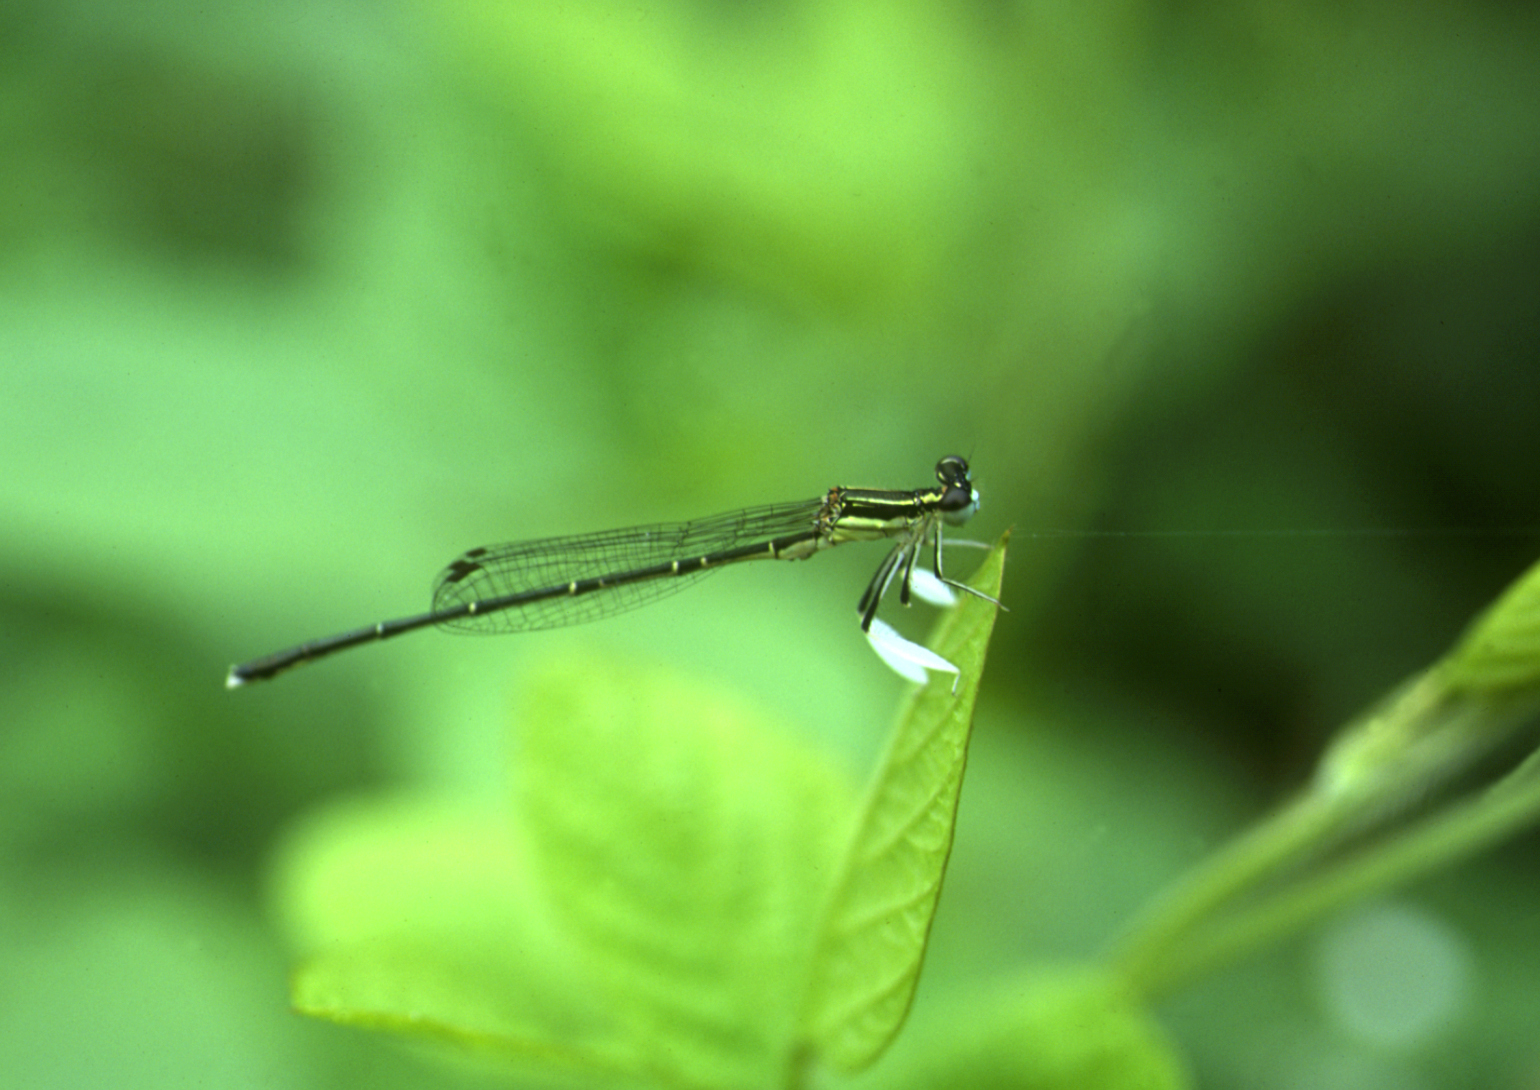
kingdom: Animalia
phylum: Arthropoda
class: Insecta
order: Odonata
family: Platycnemididae
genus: Platycnemis
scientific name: Platycnemis phyllopoda
